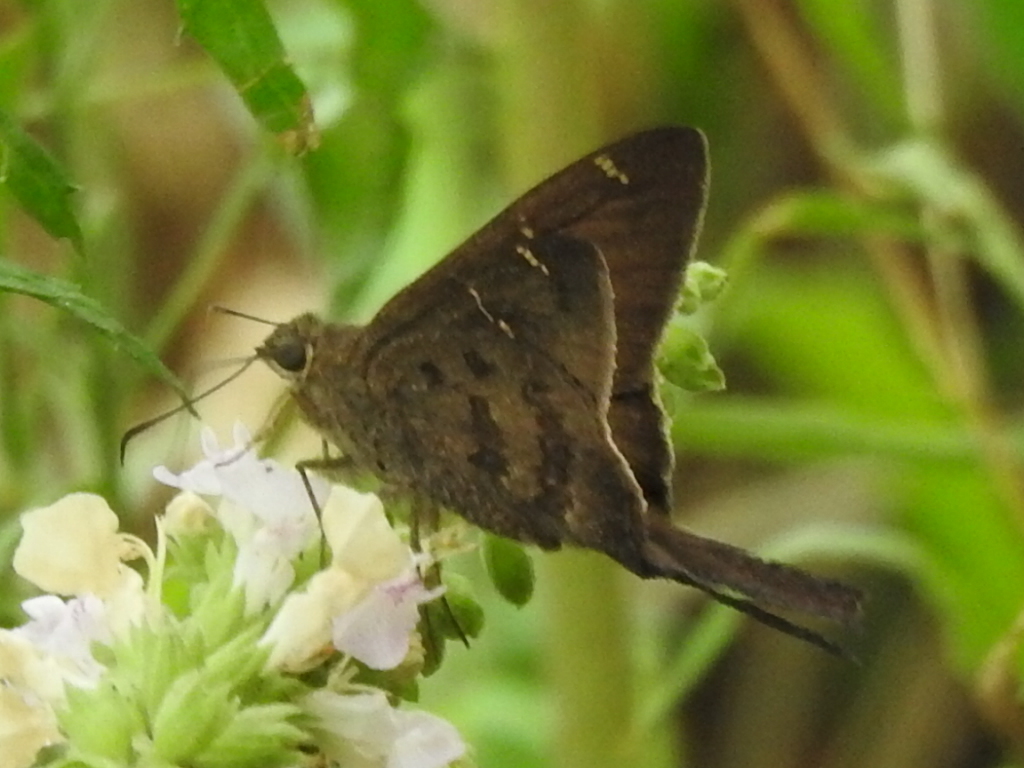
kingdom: Animalia
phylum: Arthropoda
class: Insecta
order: Lepidoptera
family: Hesperiidae
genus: Urbanus
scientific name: Urbanus procne
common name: Brown longtail
